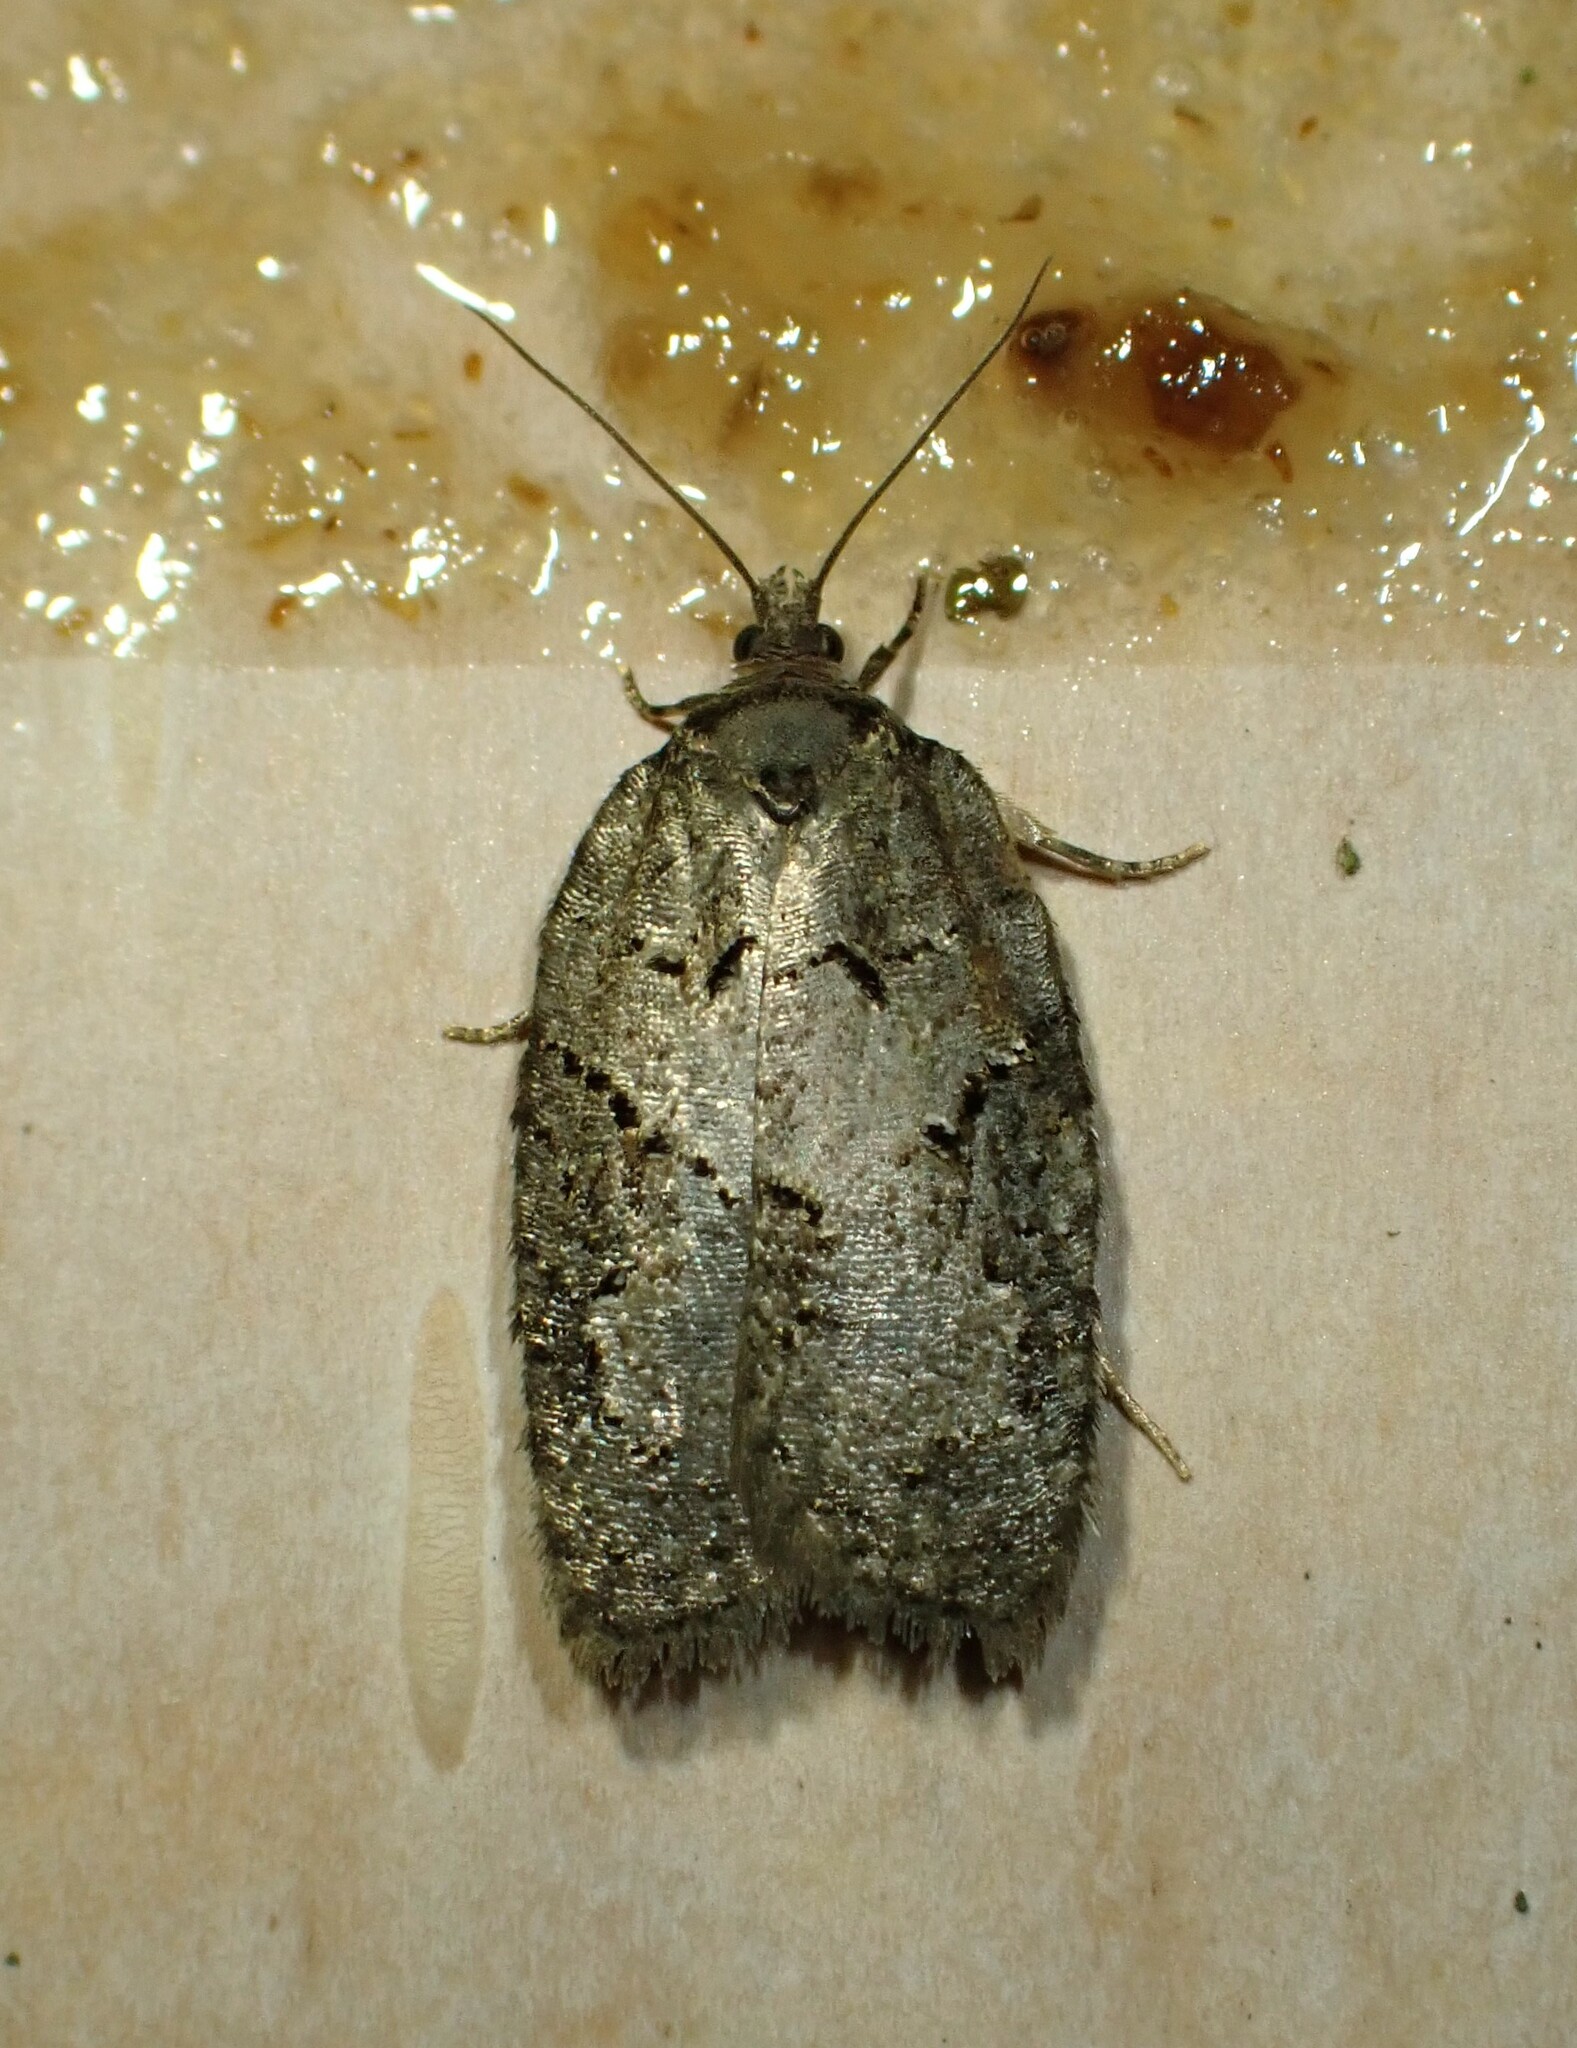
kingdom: Animalia
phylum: Arthropoda
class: Insecta
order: Lepidoptera
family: Tortricidae
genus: Acleris
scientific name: Acleris chalybeana
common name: Lesser maple leafroller
